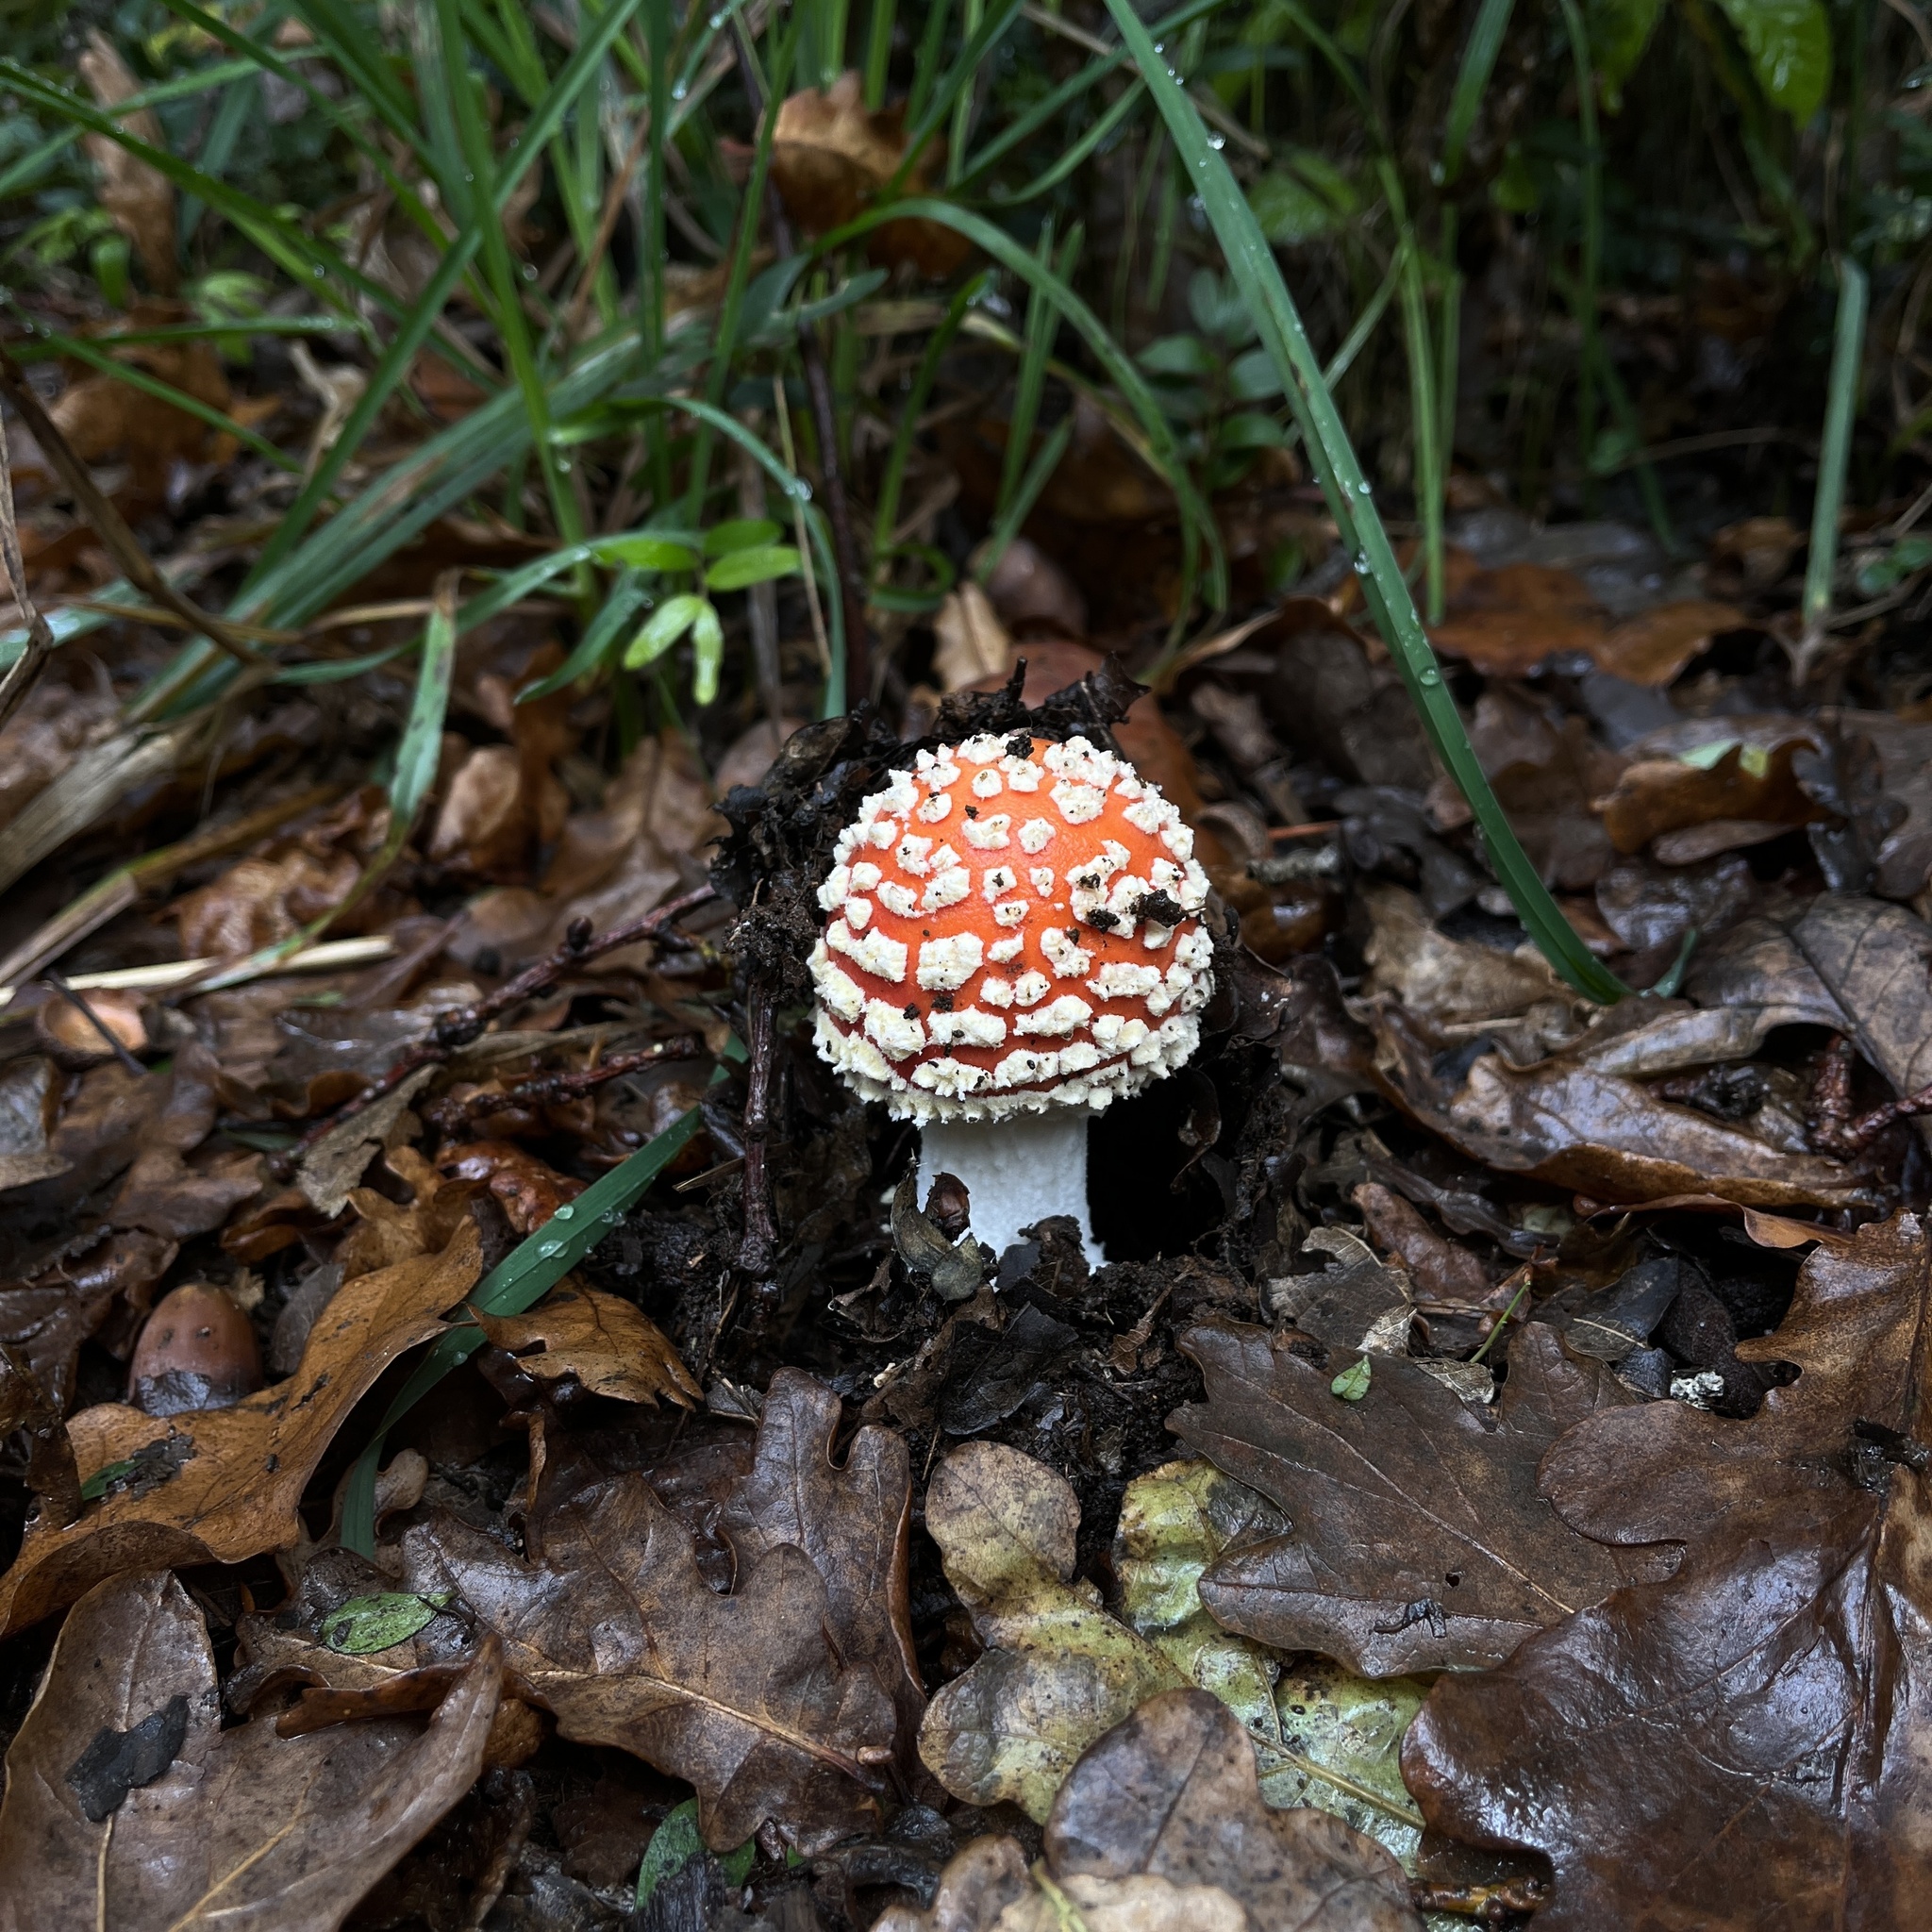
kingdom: Fungi
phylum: Basidiomycota
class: Agaricomycetes
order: Agaricales
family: Amanitaceae
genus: Amanita
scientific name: Amanita muscaria
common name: Fly agaric
